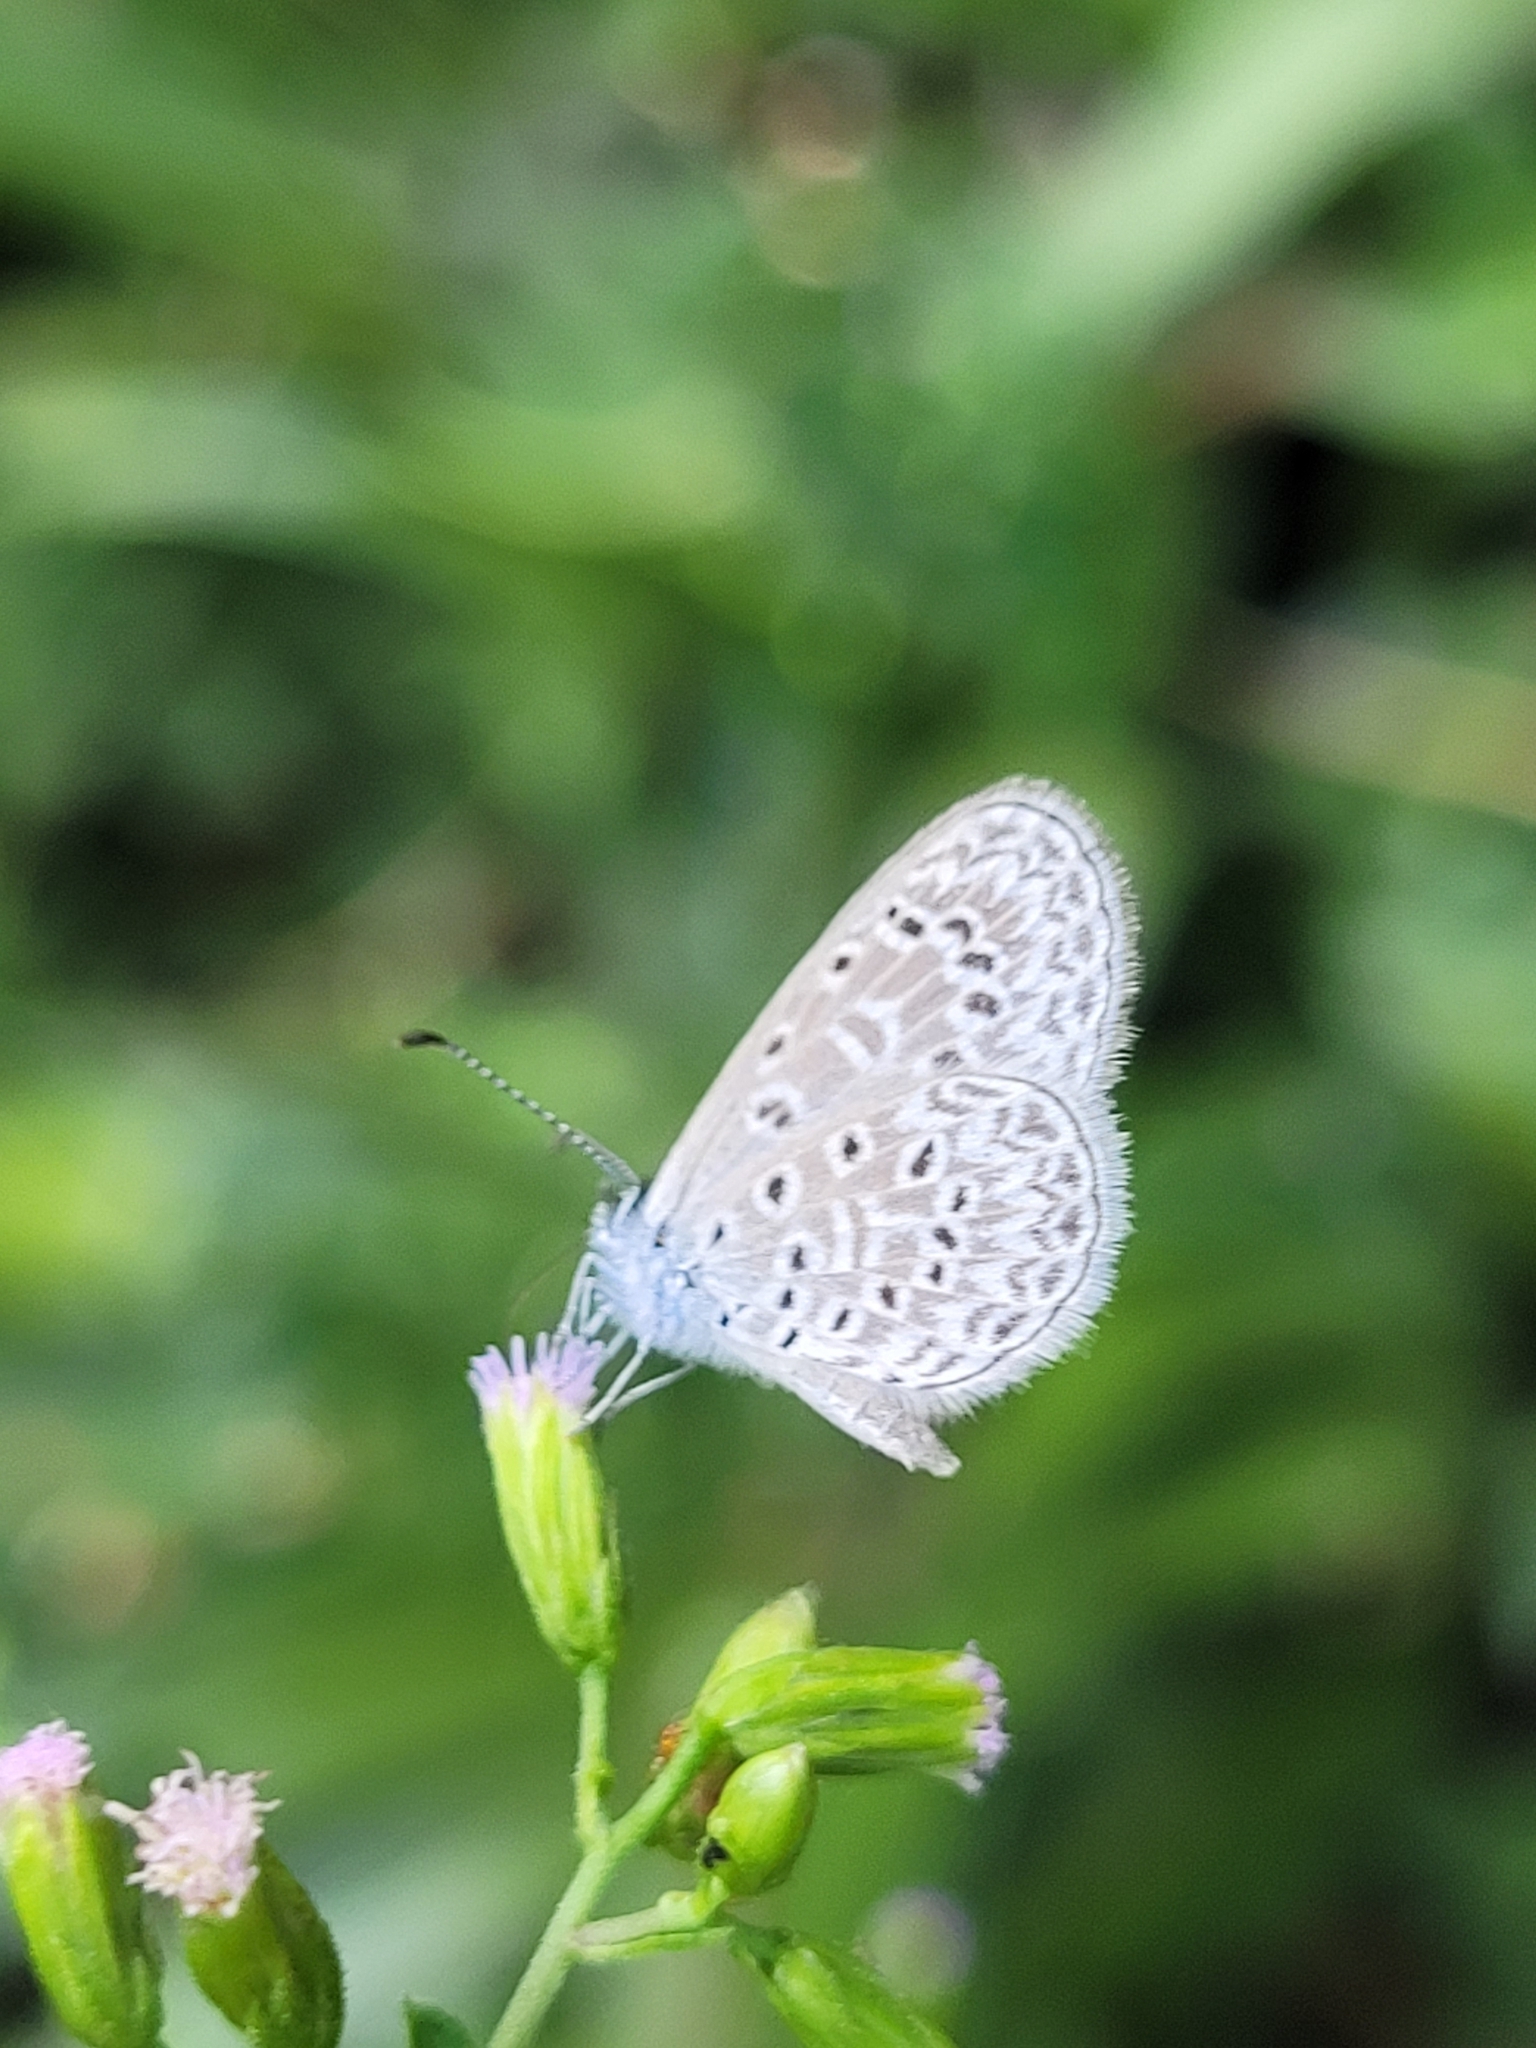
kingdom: Animalia
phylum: Arthropoda
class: Insecta
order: Lepidoptera
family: Lycaenidae
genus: Lycaena
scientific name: Lycaena cyna
